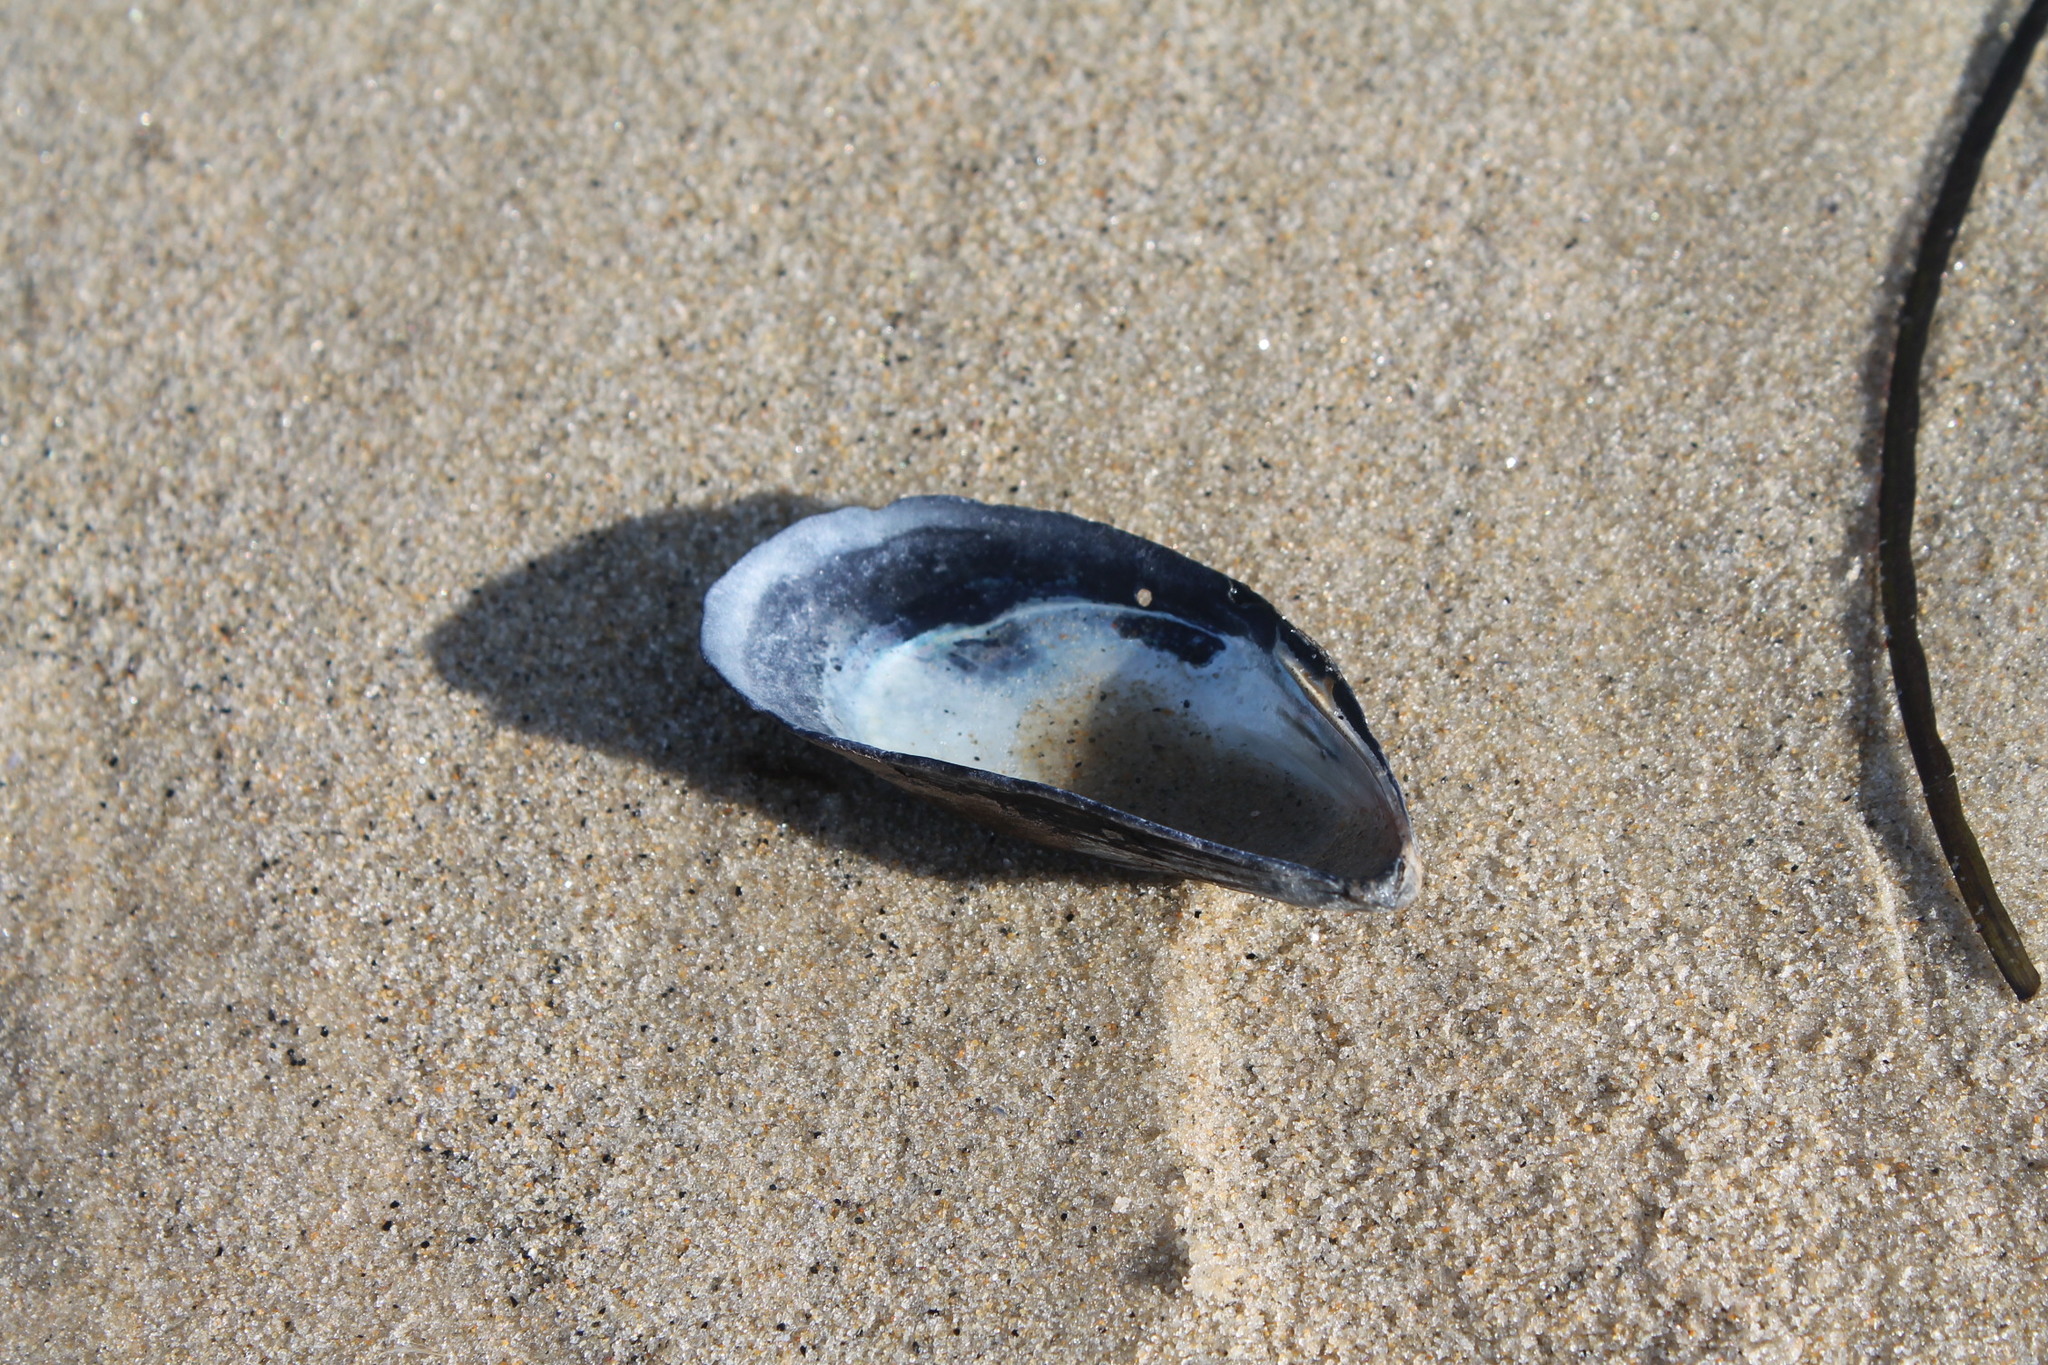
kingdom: Animalia
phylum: Mollusca
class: Bivalvia
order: Mytilida
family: Mytilidae
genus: Mytilus
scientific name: Mytilus edulis
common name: Blue mussel
